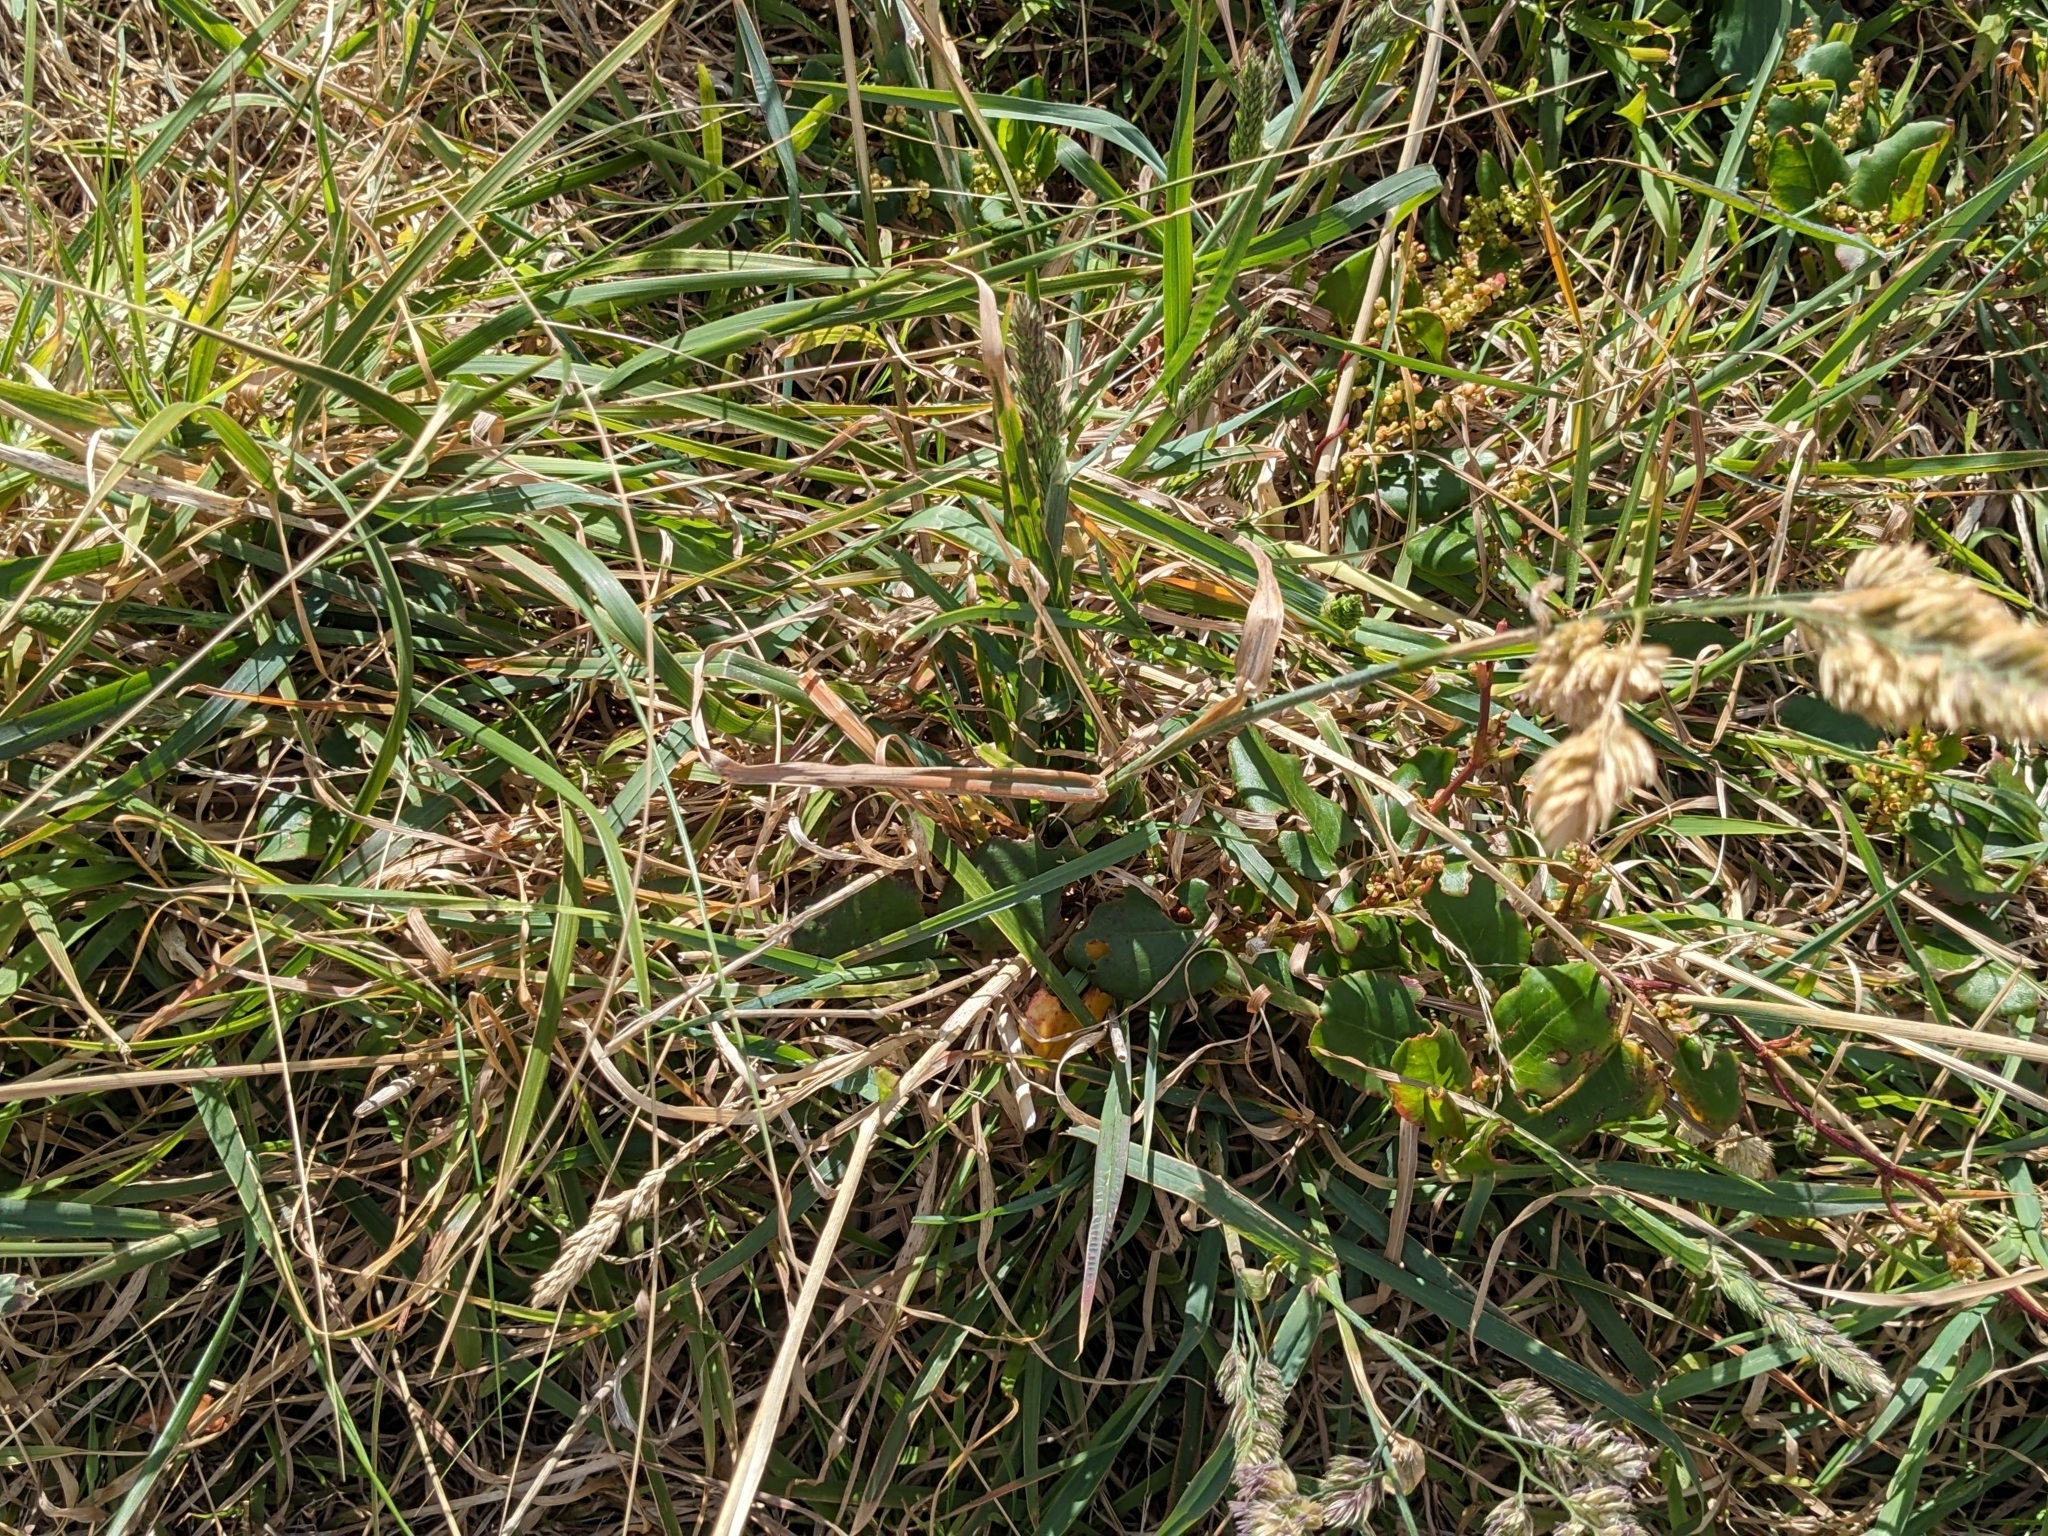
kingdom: Plantae
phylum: Tracheophyta
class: Liliopsida
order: Poales
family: Poaceae
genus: Dactylis
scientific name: Dactylis glomerata
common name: Orchardgrass
